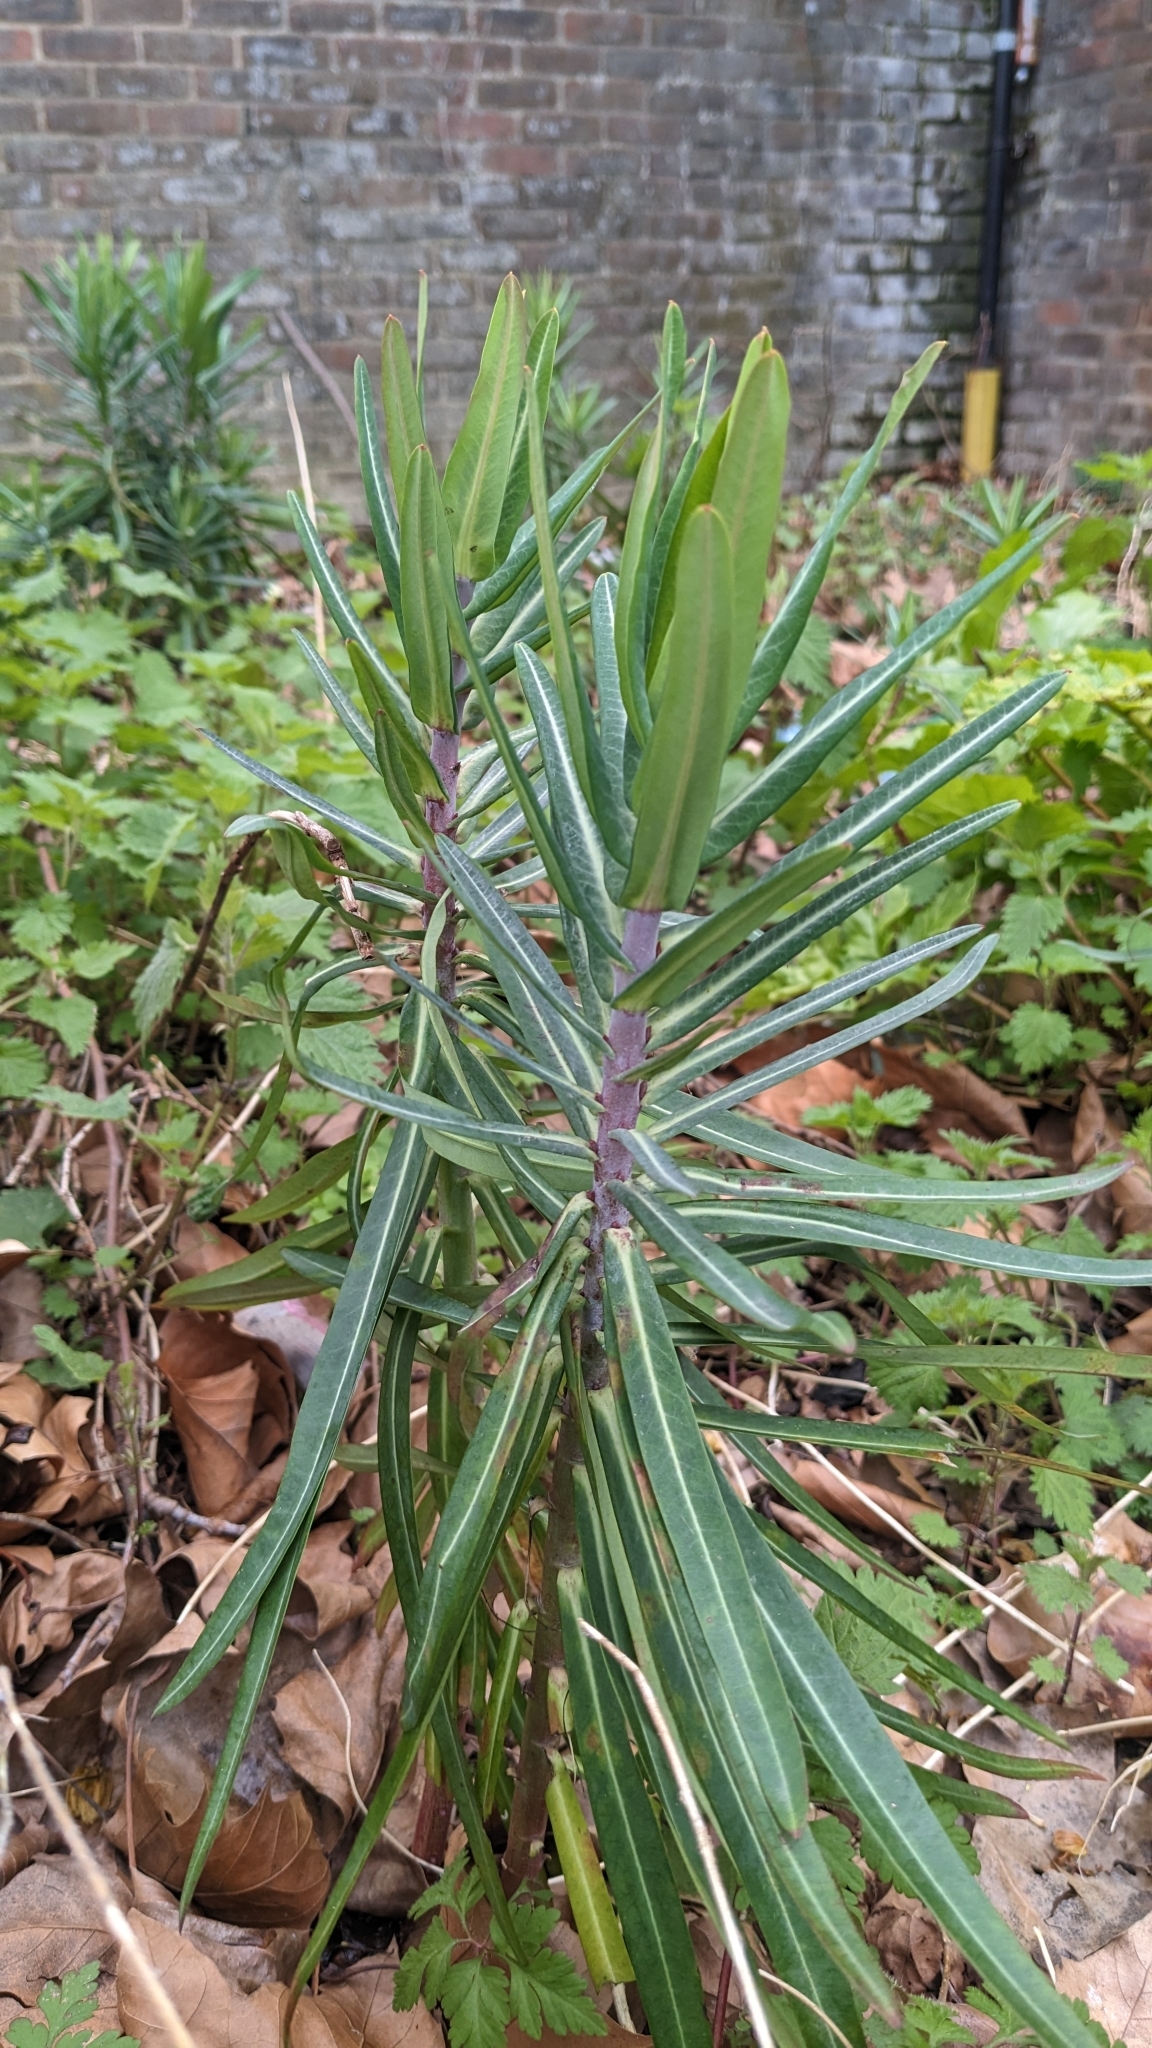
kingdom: Plantae
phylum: Tracheophyta
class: Magnoliopsida
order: Malpighiales
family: Euphorbiaceae
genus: Euphorbia
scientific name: Euphorbia lathyris
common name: Caper spurge
